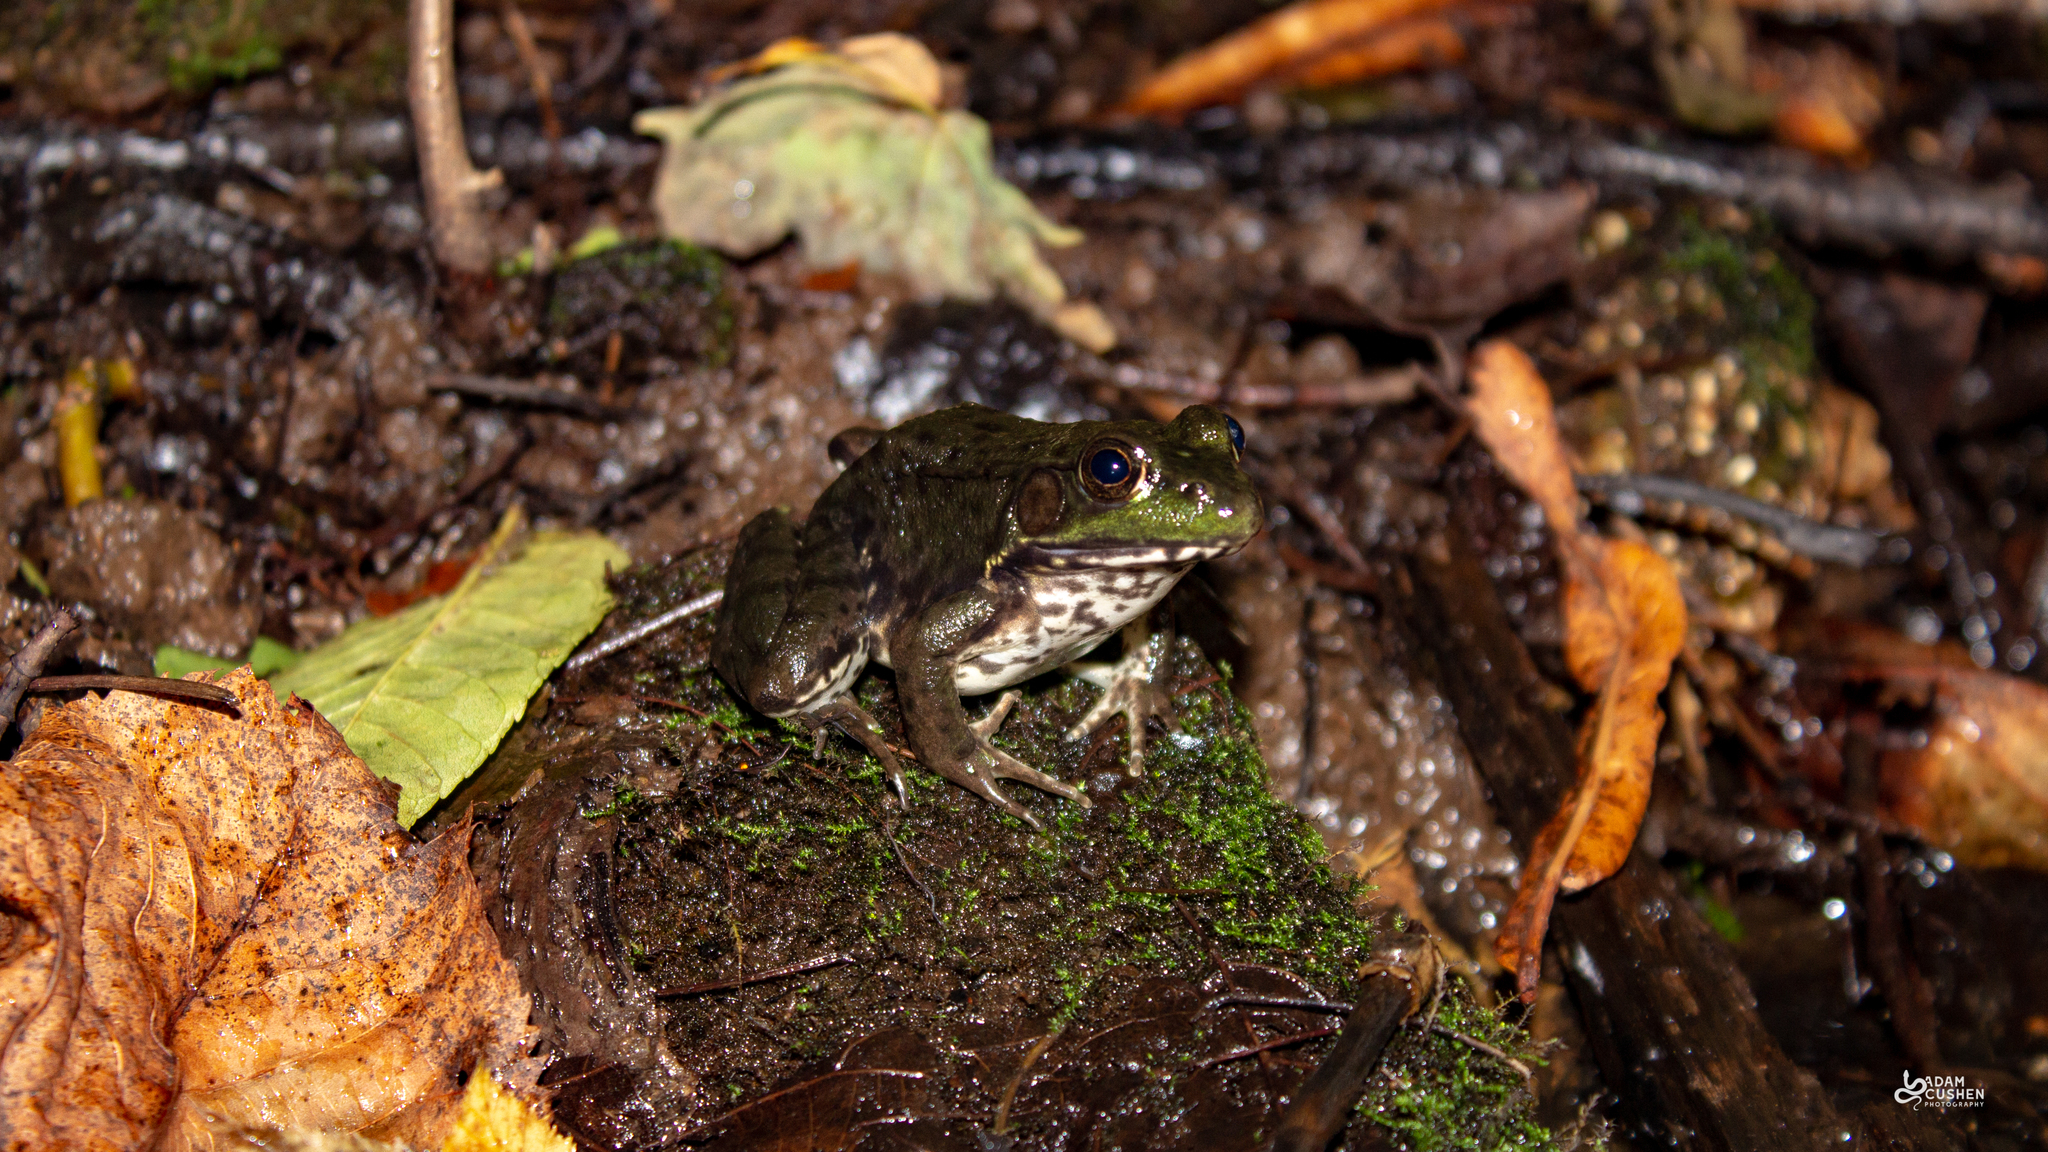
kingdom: Animalia
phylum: Chordata
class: Amphibia
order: Anura
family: Ranidae
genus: Lithobates
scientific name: Lithobates clamitans
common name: Green frog
